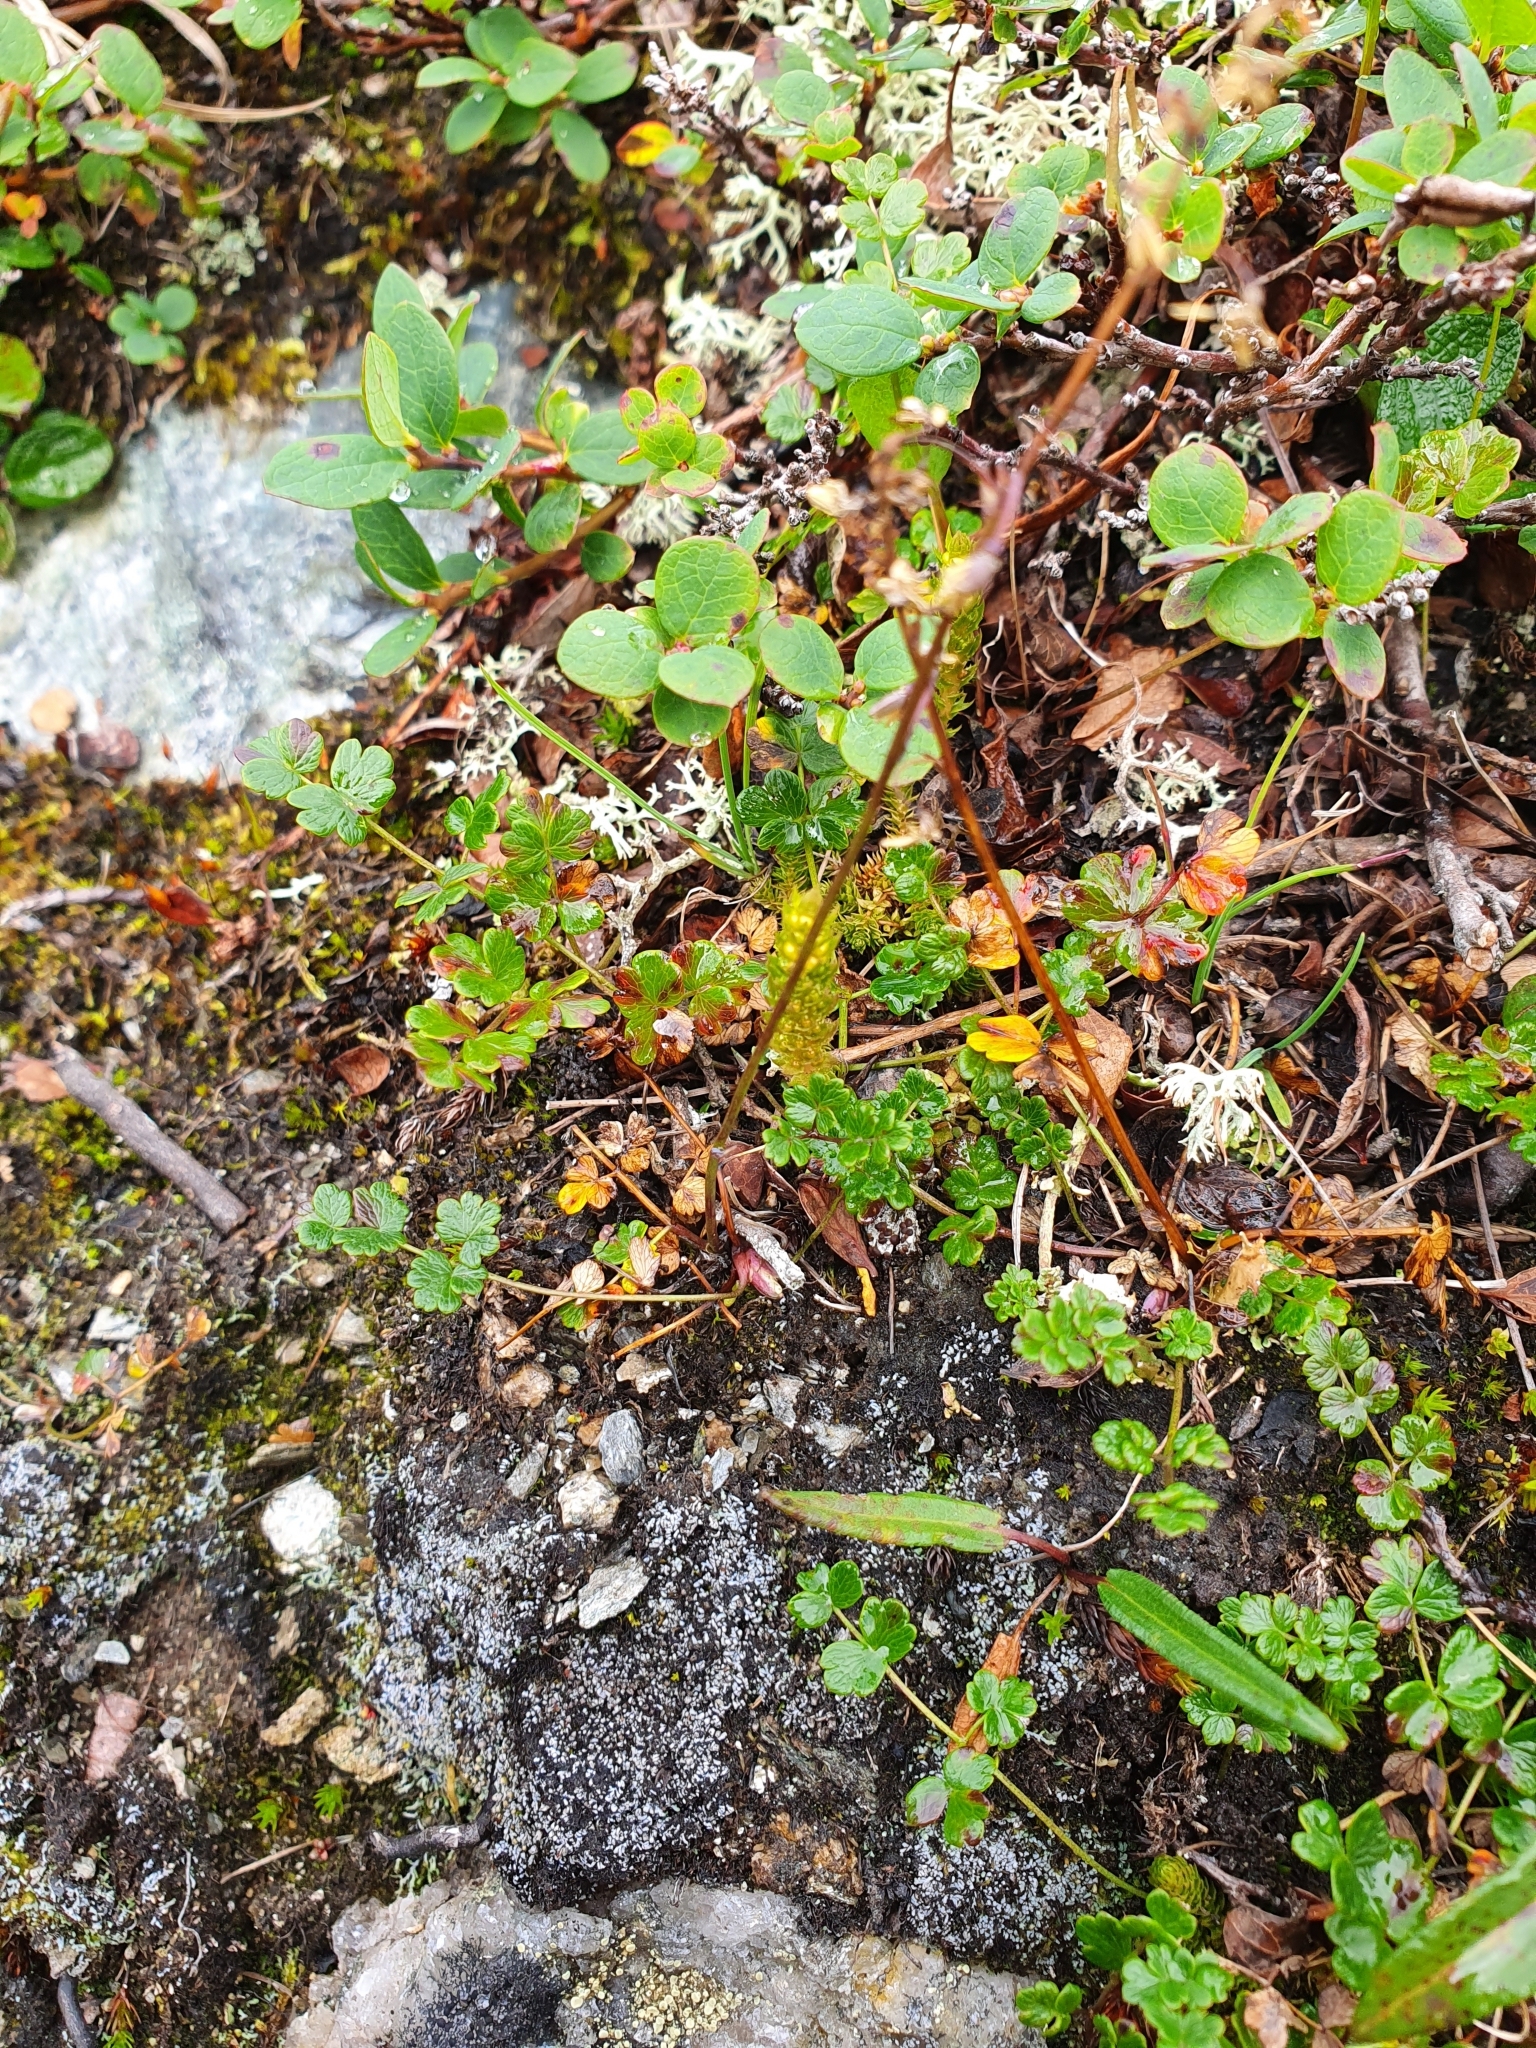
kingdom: Plantae
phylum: Tracheophyta
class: Magnoliopsida
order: Ranunculales
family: Ranunculaceae
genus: Thalictrum
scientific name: Thalictrum alpinum
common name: Alpine meadow-rue
